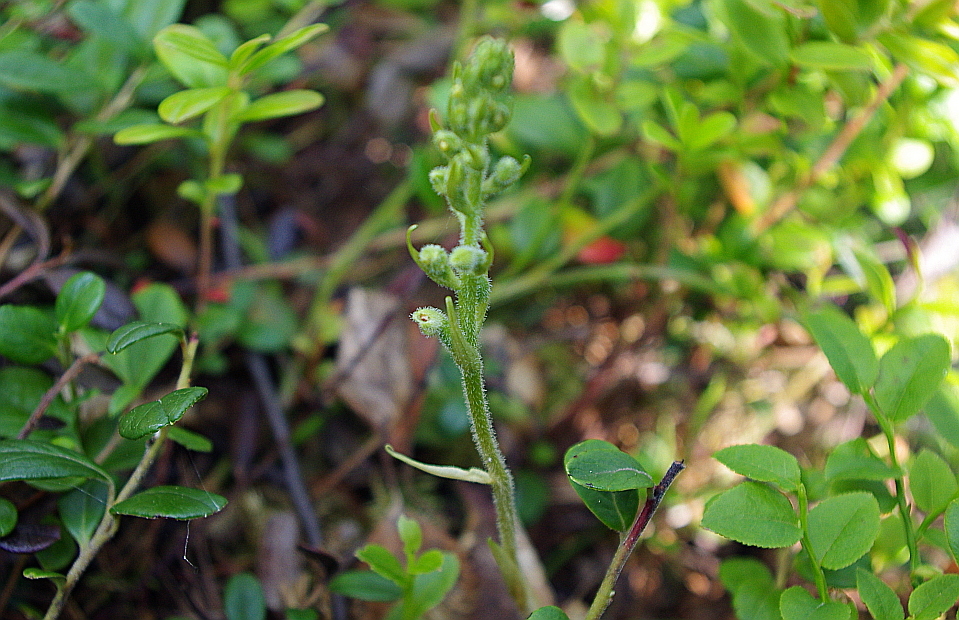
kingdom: Plantae
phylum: Tracheophyta
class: Liliopsida
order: Asparagales
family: Orchidaceae
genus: Goodyera
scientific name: Goodyera repens
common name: Creeping lady's-tresses
